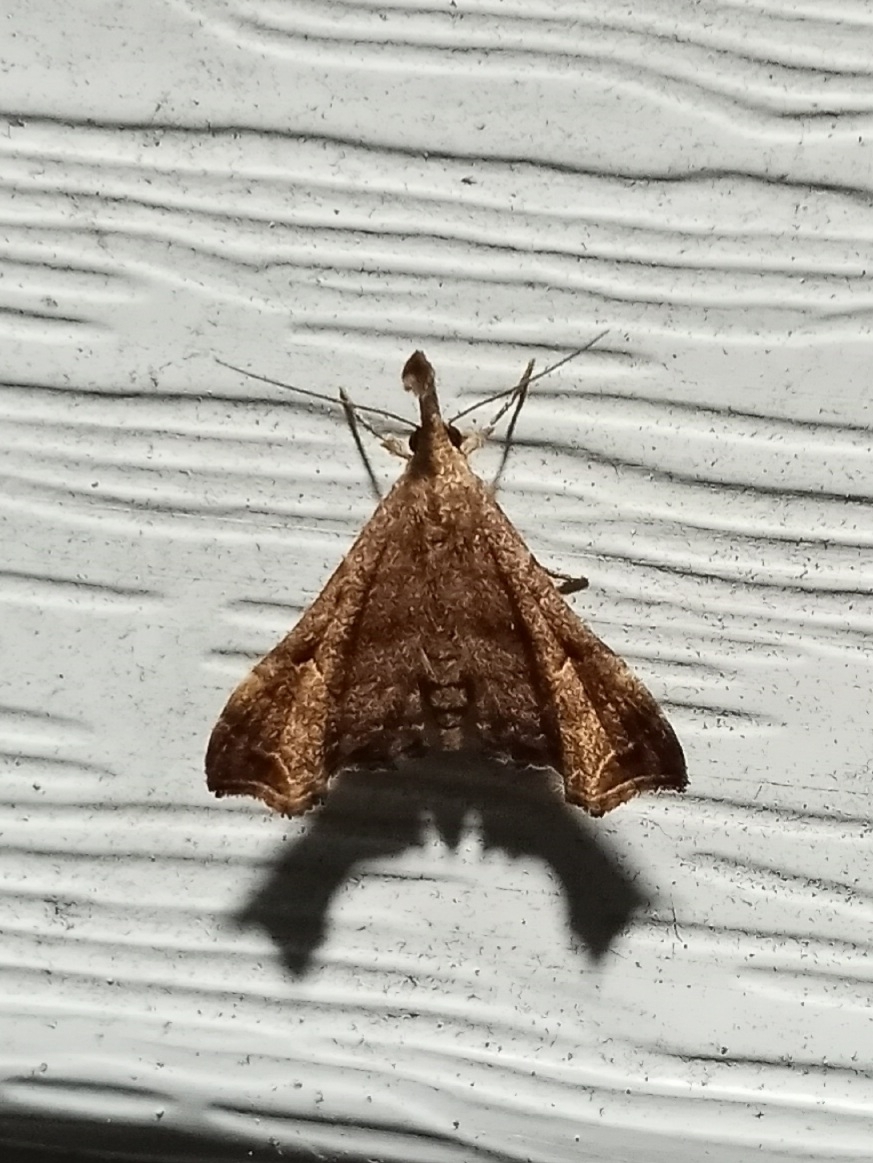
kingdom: Animalia
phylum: Arthropoda
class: Insecta
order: Lepidoptera
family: Erebidae
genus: Palthis
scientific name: Palthis asopialis
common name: Faint-spotted palthis moth
